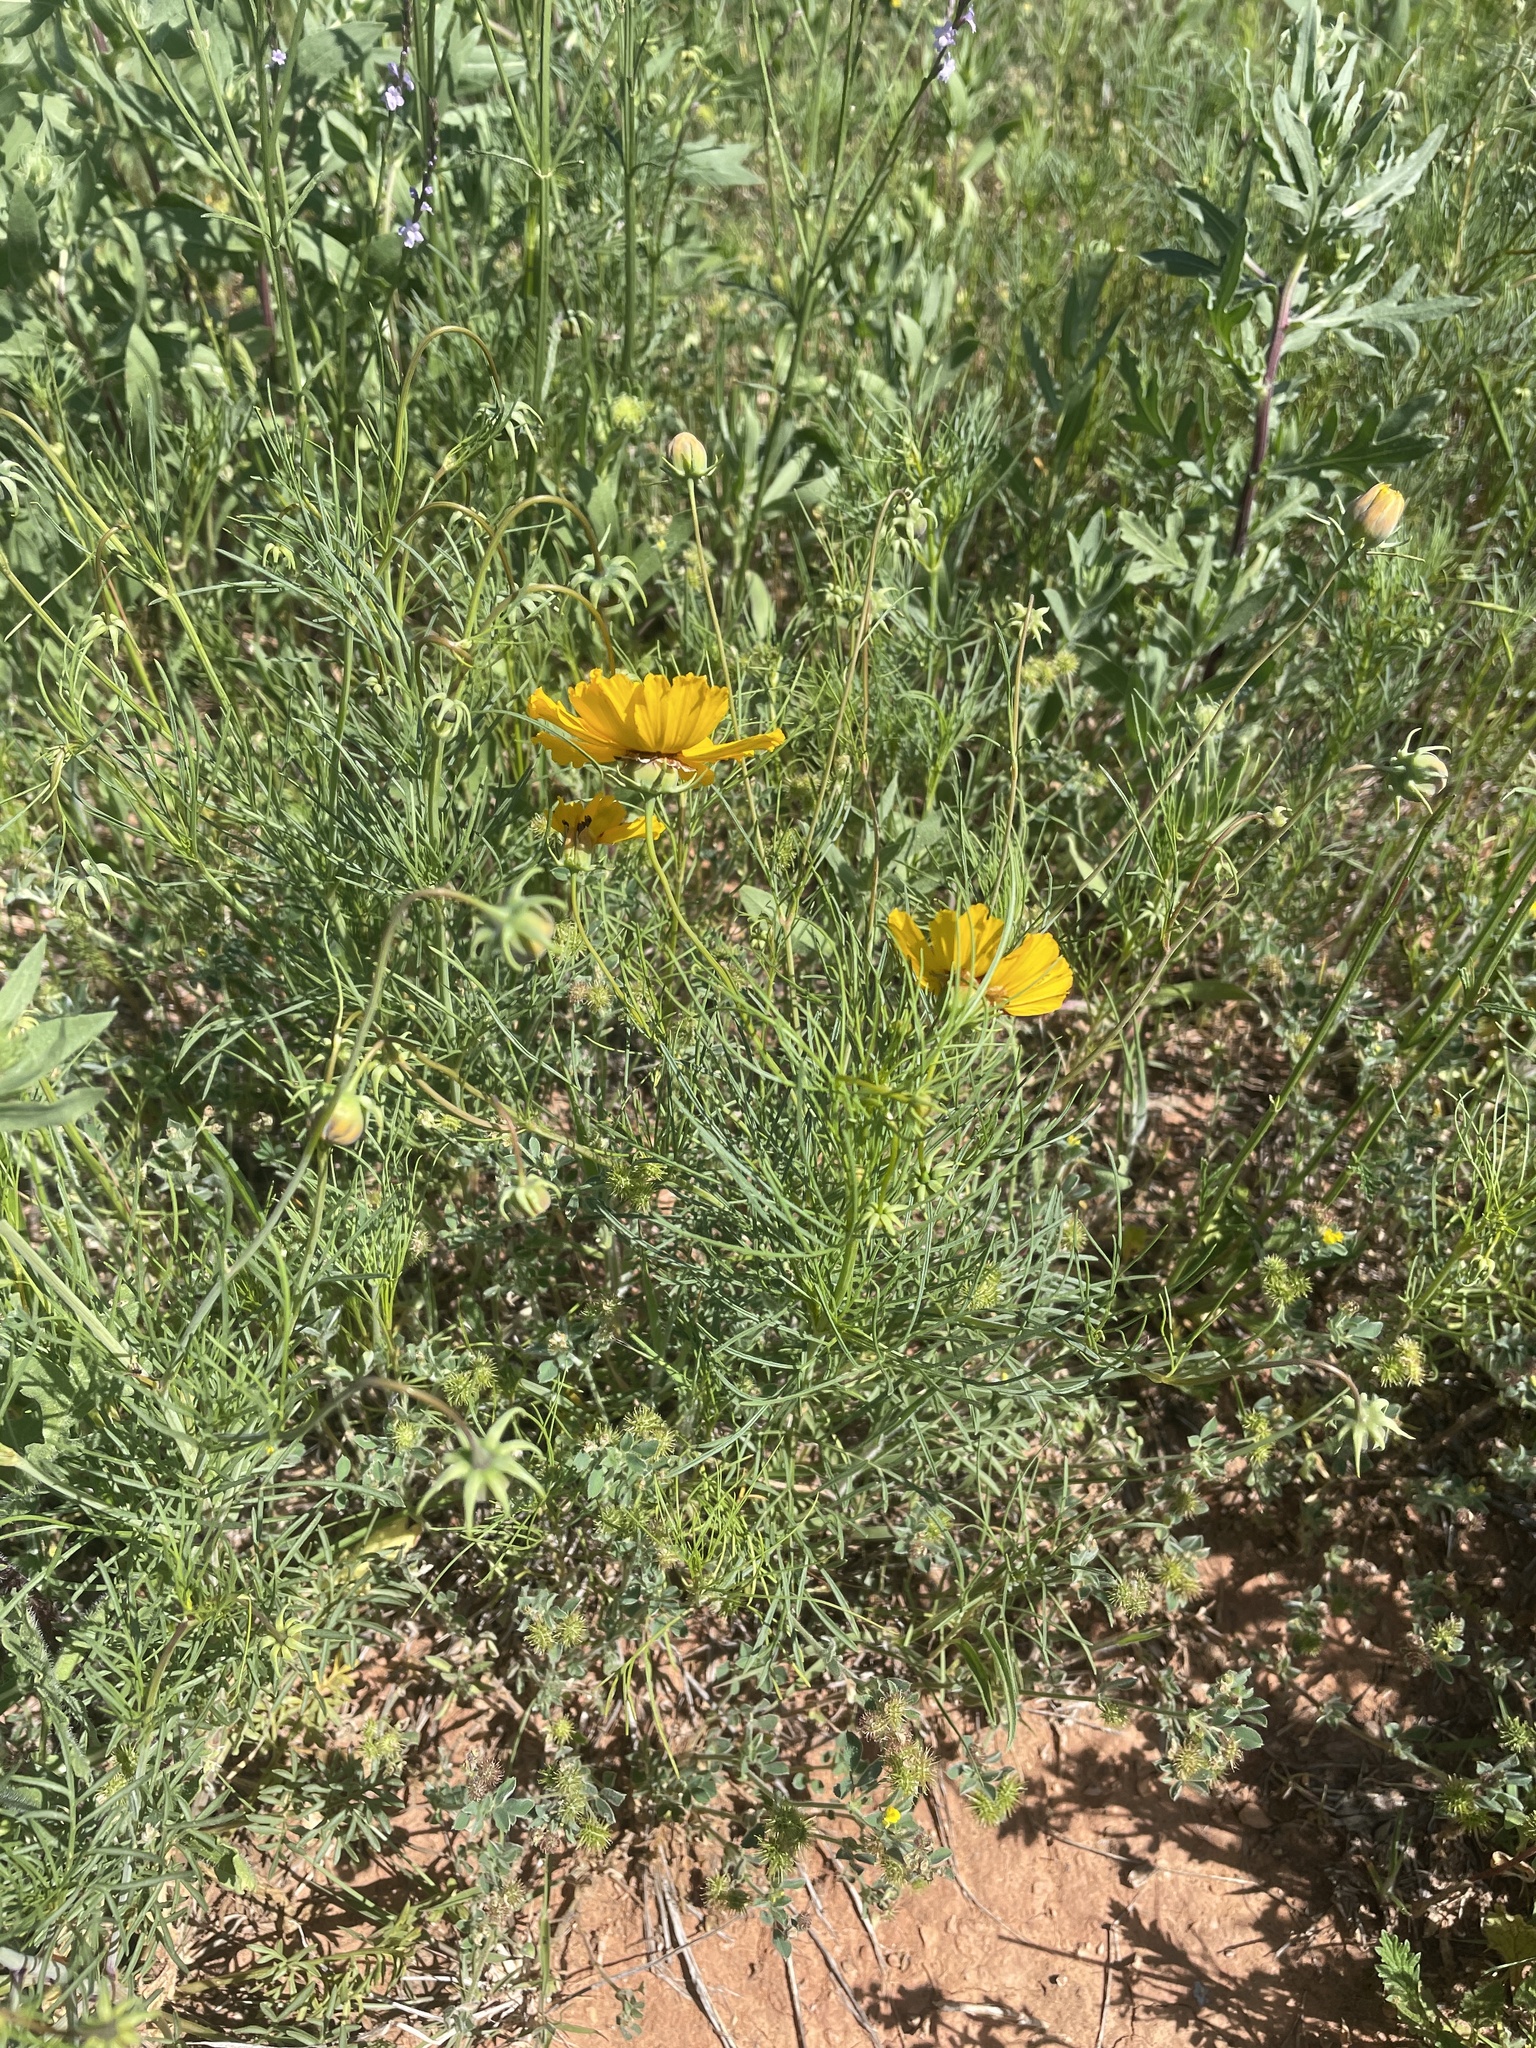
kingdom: Plantae
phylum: Tracheophyta
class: Magnoliopsida
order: Asterales
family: Asteraceae
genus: Thelesperma
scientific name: Thelesperma filifolium
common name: Stiff greenthread
